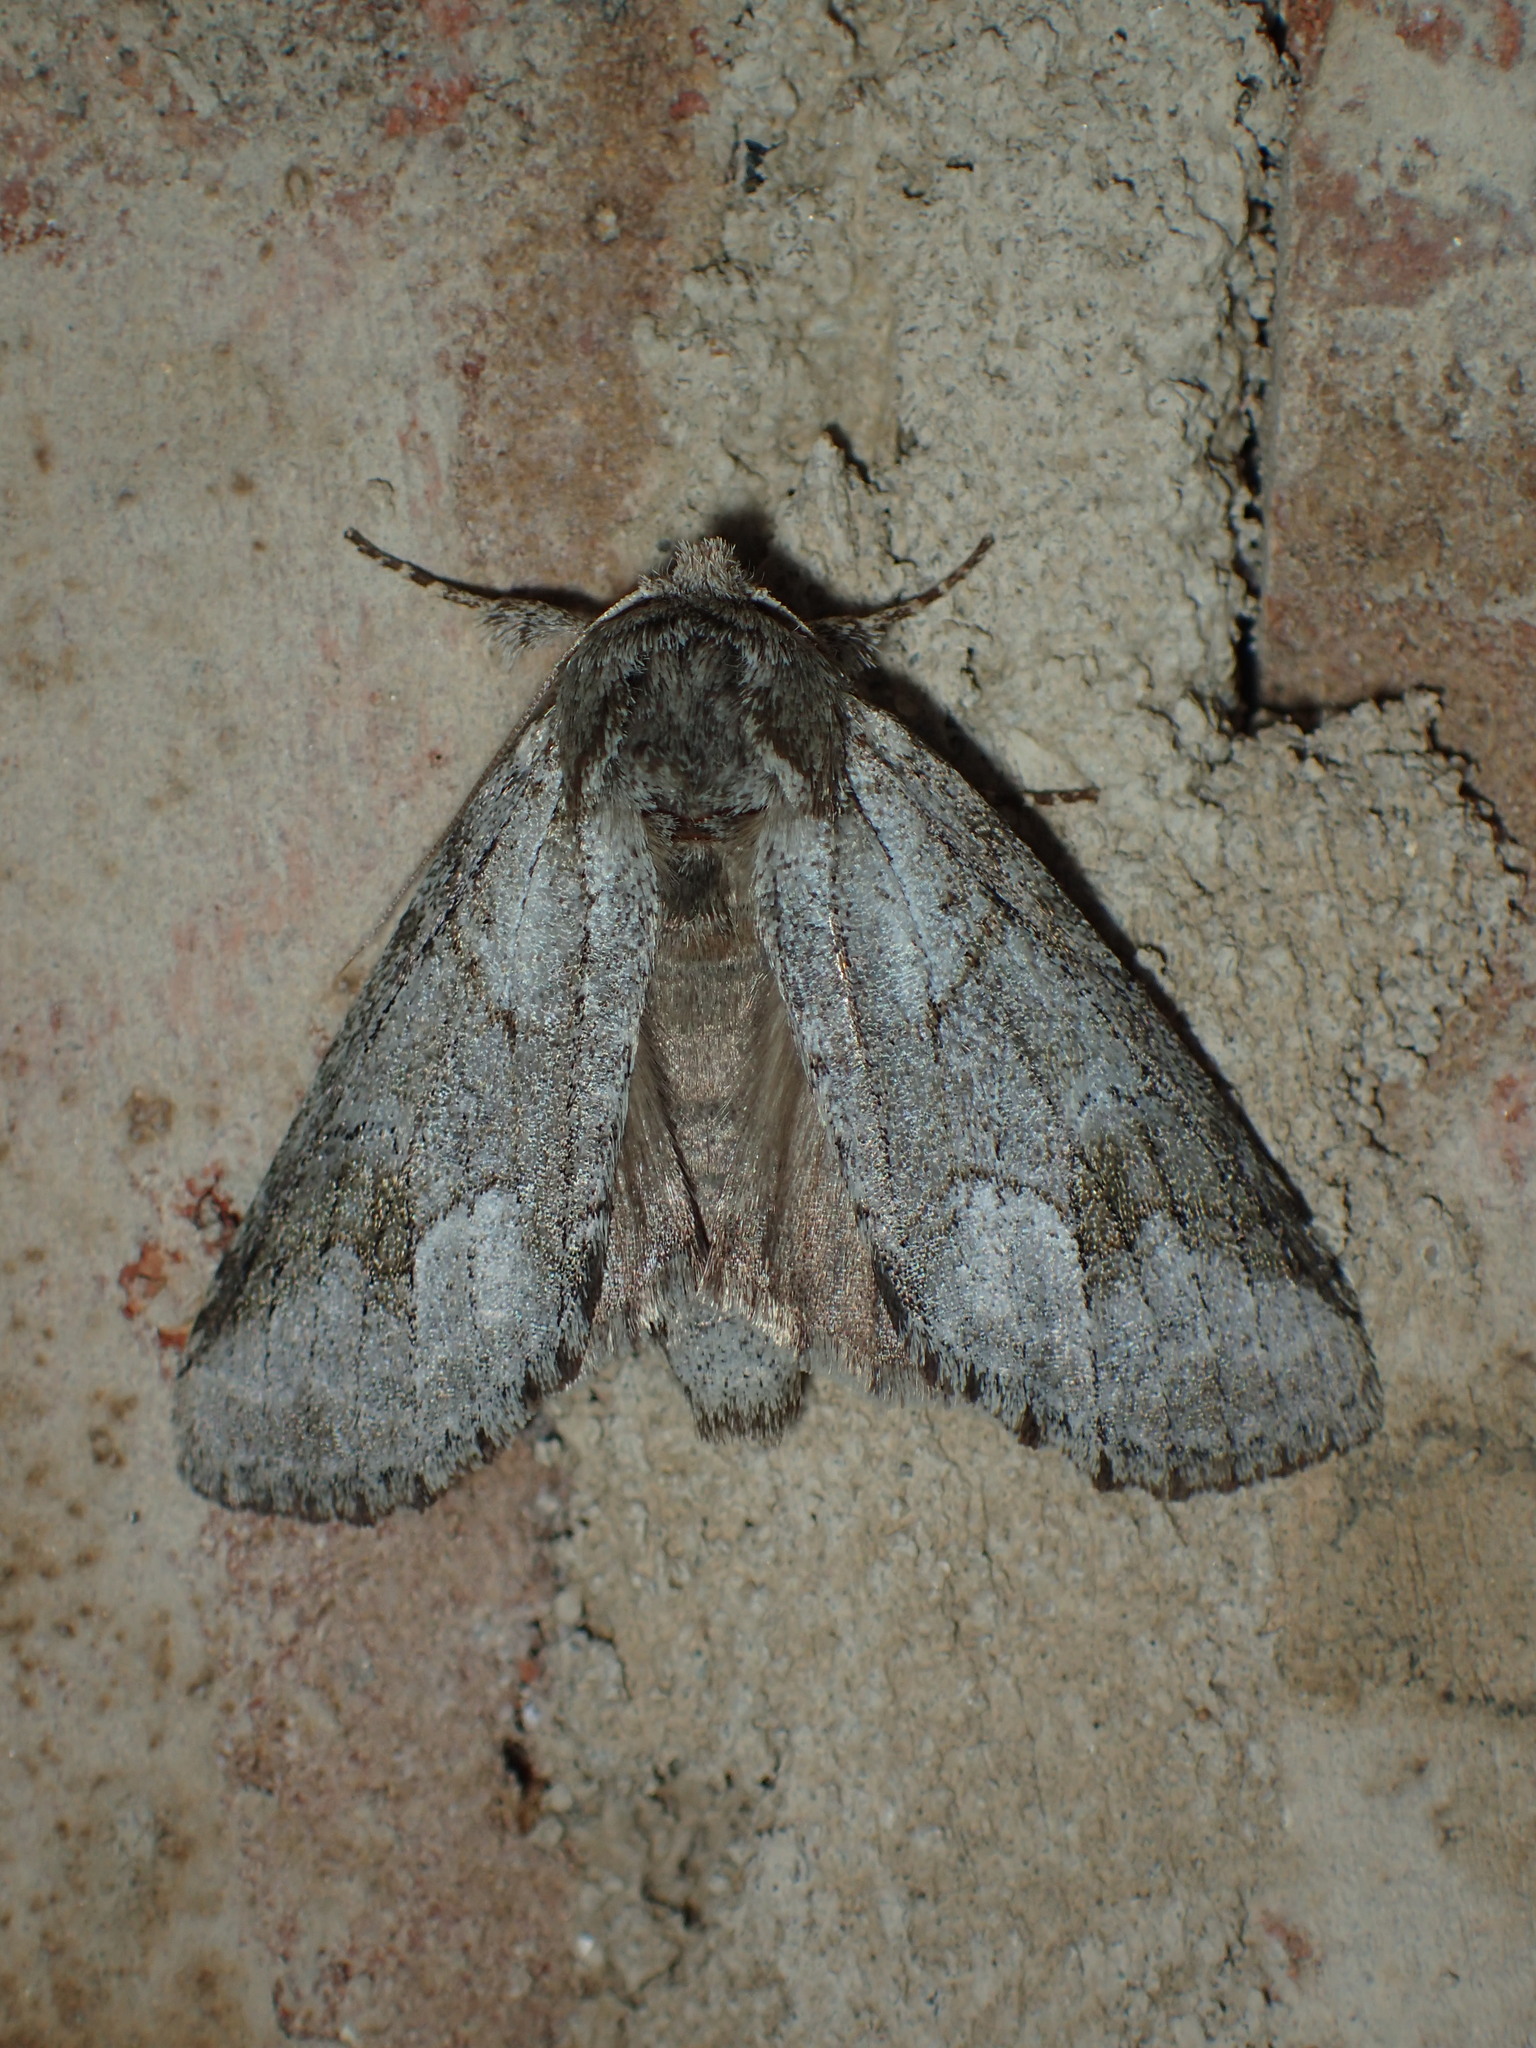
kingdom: Animalia
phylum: Arthropoda
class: Insecta
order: Lepidoptera
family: Notodontidae
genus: Lochmaeus
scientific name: Lochmaeus bilineata
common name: Double-lined prominent
